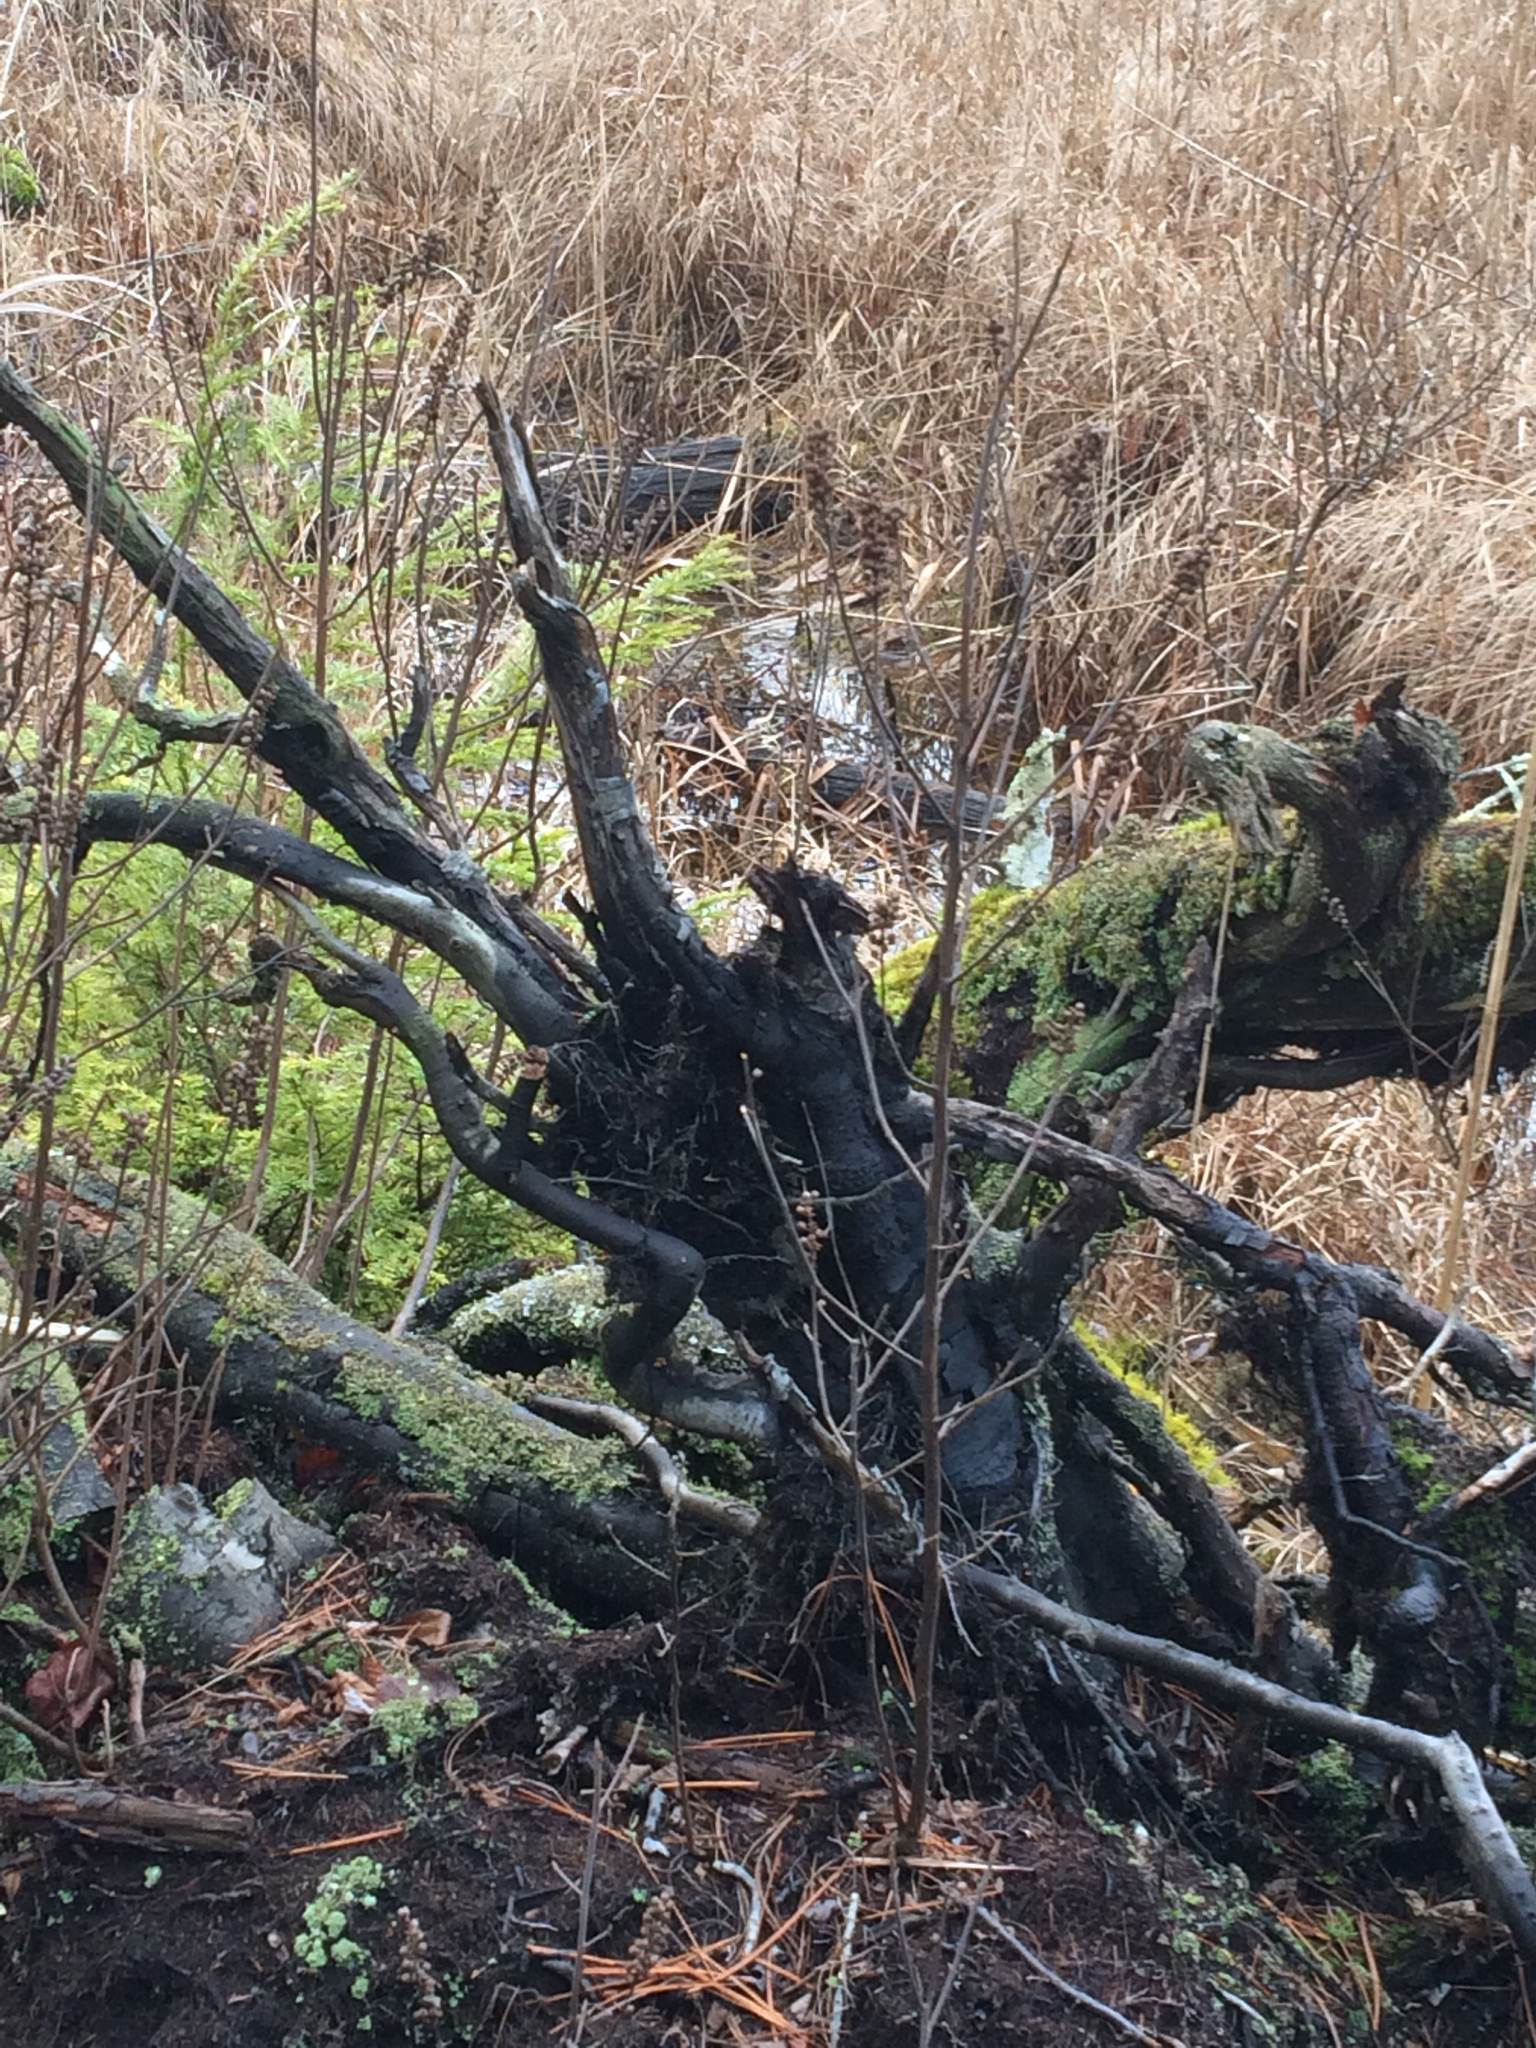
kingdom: Plantae
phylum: Tracheophyta
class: Magnoliopsida
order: Ericales
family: Clethraceae
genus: Clethra
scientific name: Clethra alnifolia
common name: Sweet pepperbush
